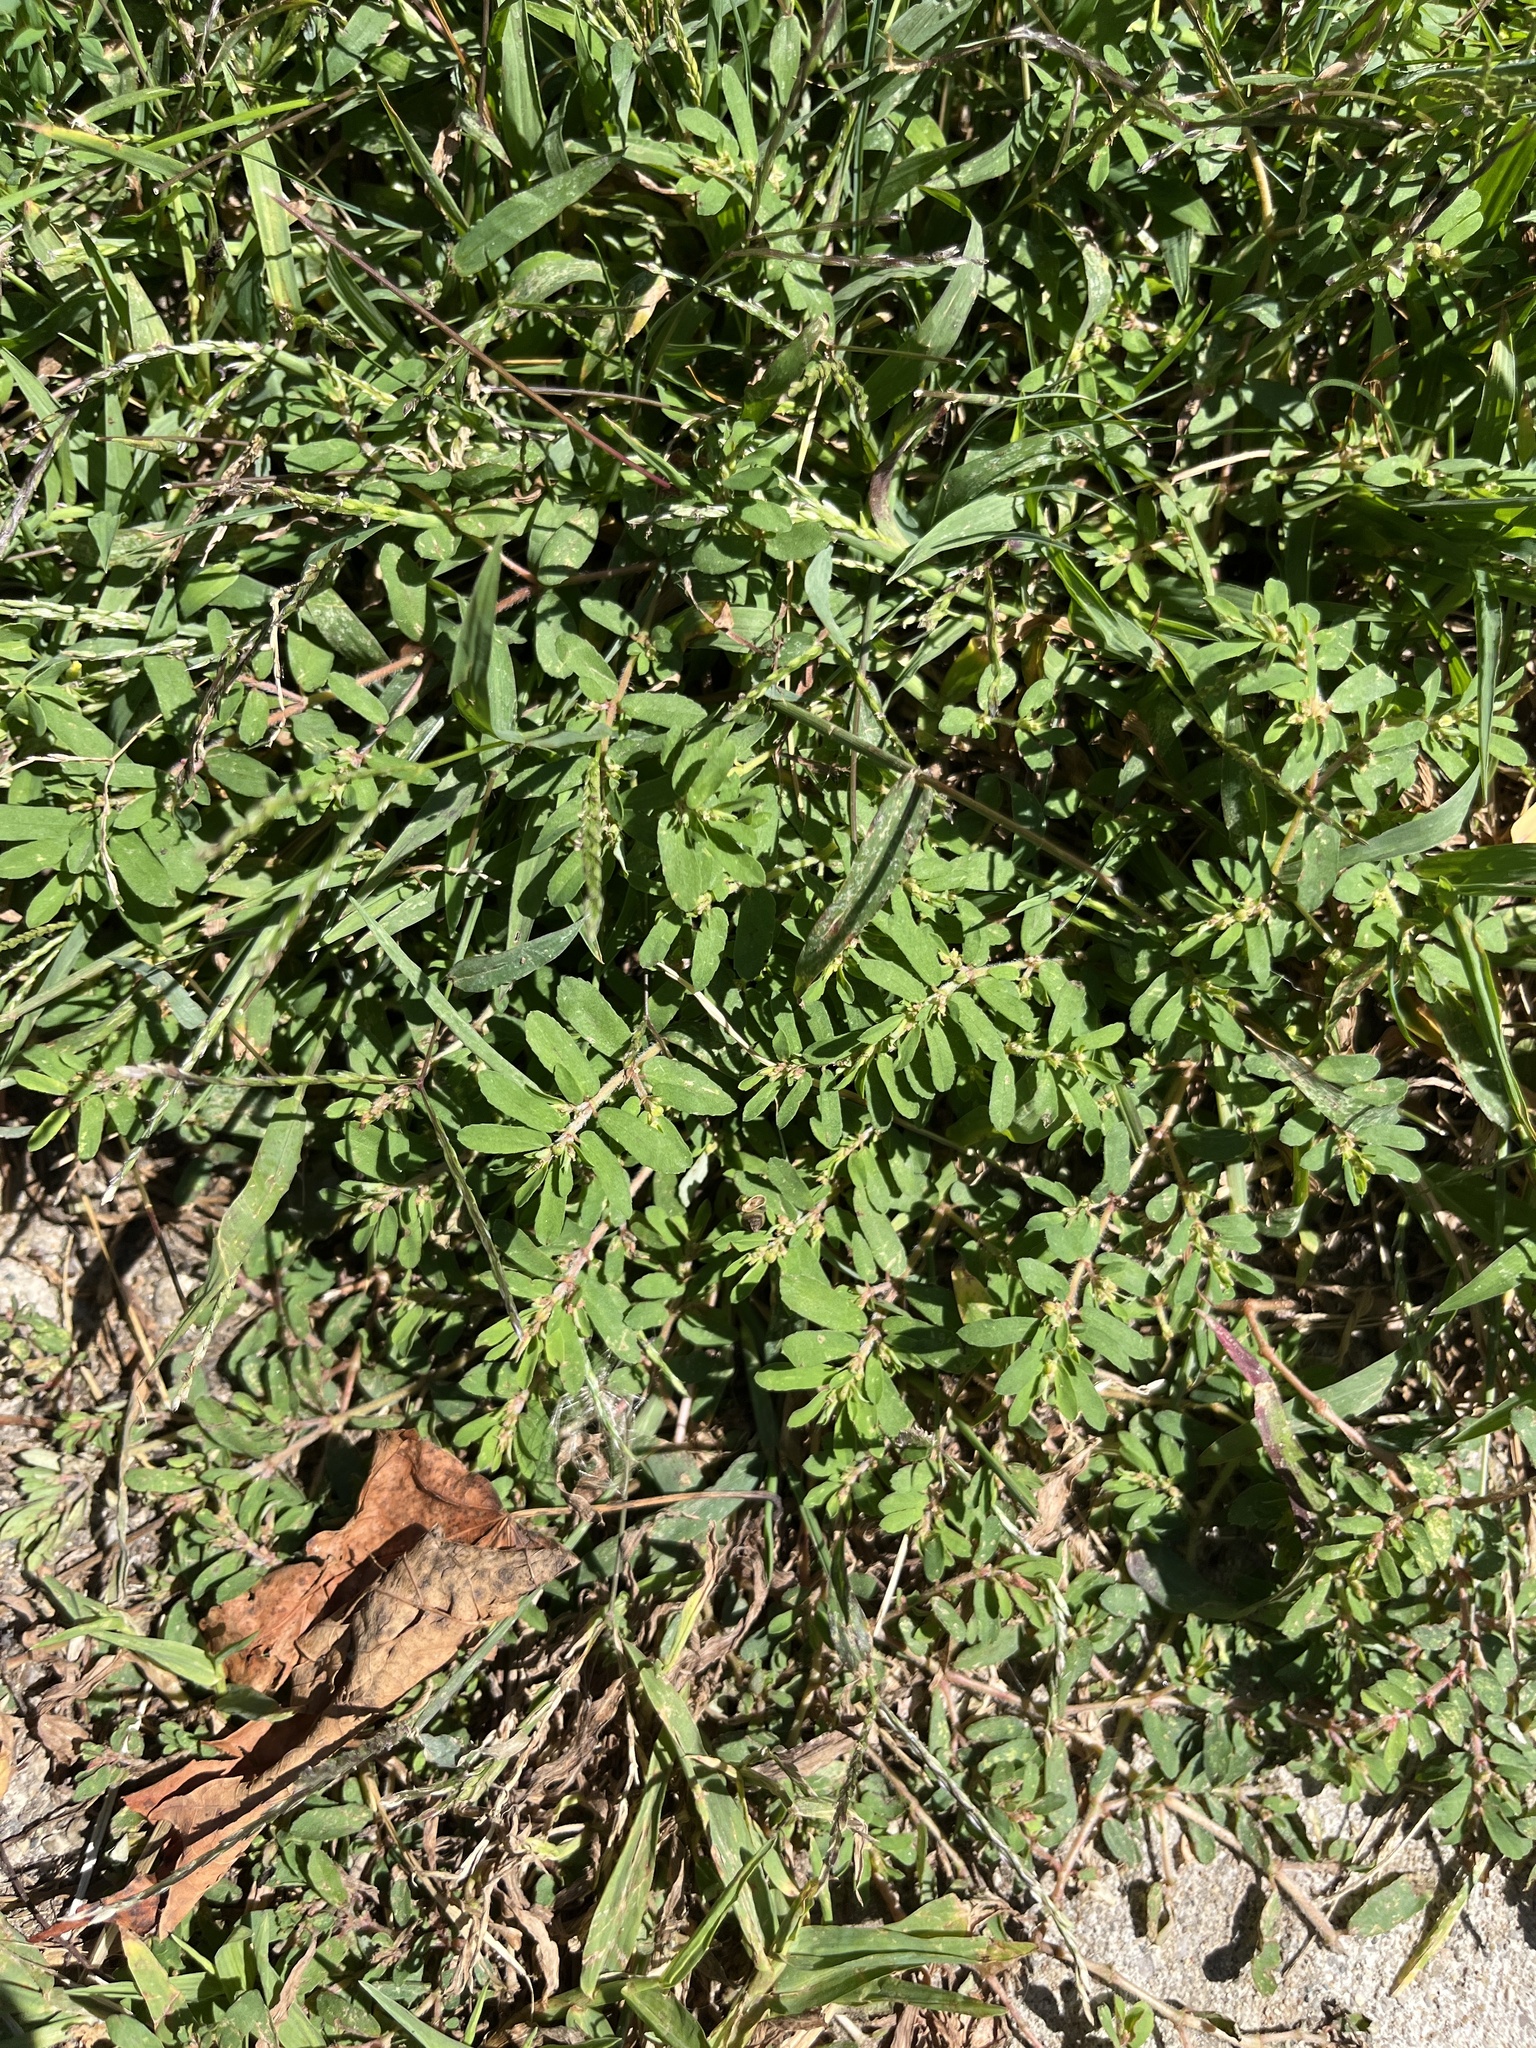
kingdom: Plantae
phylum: Tracheophyta
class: Magnoliopsida
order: Malpighiales
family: Euphorbiaceae
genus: Euphorbia
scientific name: Euphorbia maculata
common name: Spotted spurge
